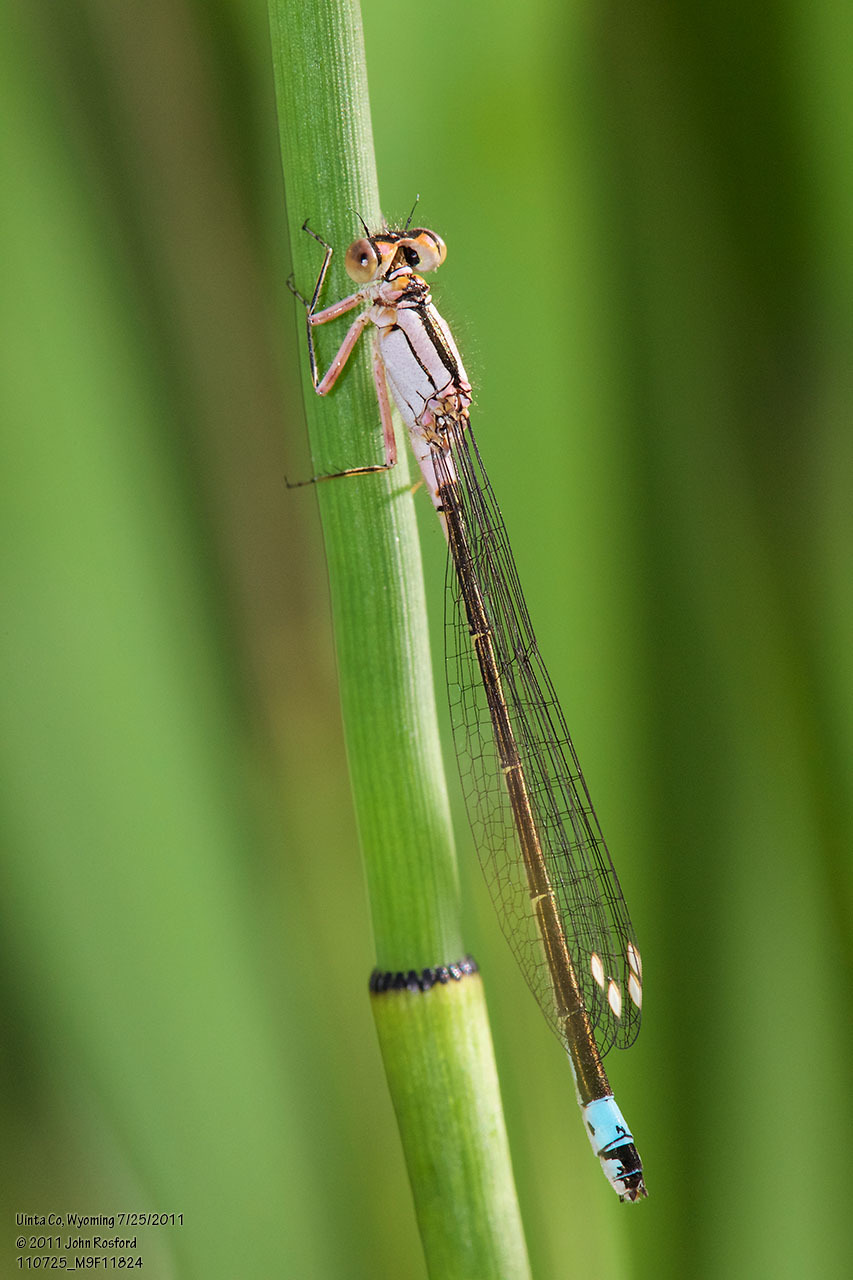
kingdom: Animalia
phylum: Arthropoda
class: Insecta
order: Odonata
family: Coenagrionidae
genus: Ischnura
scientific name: Ischnura cervula
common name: Pacific forktail
